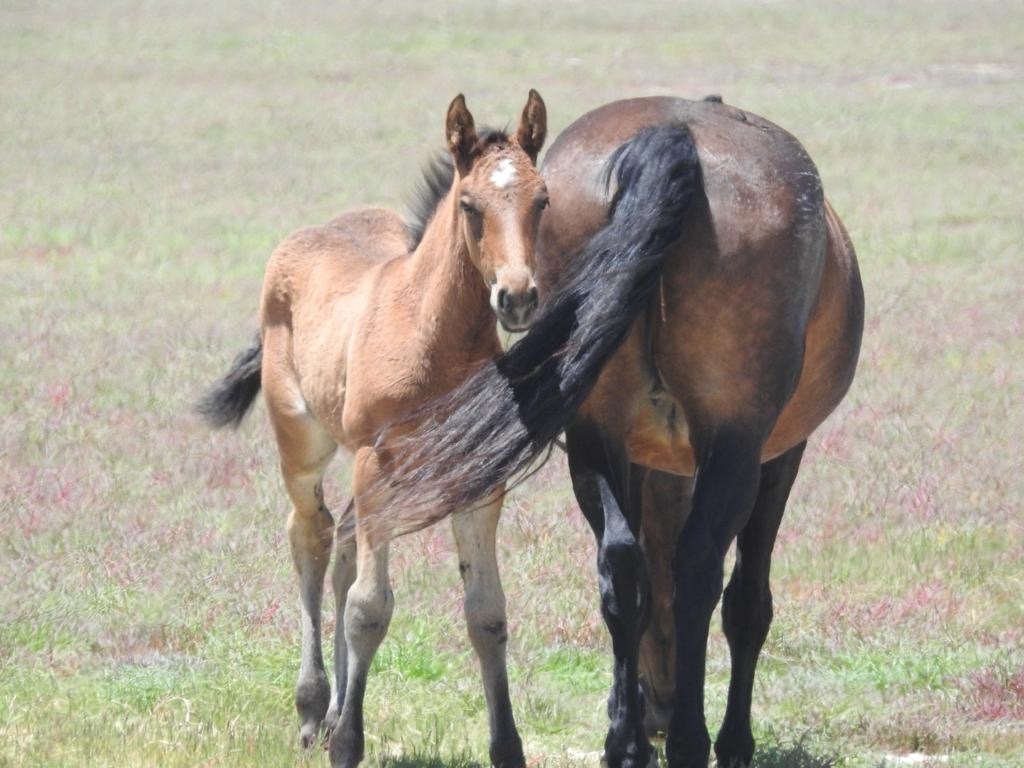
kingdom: Animalia
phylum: Chordata
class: Mammalia
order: Perissodactyla
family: Equidae
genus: Equus
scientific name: Equus caballus
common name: Horse
